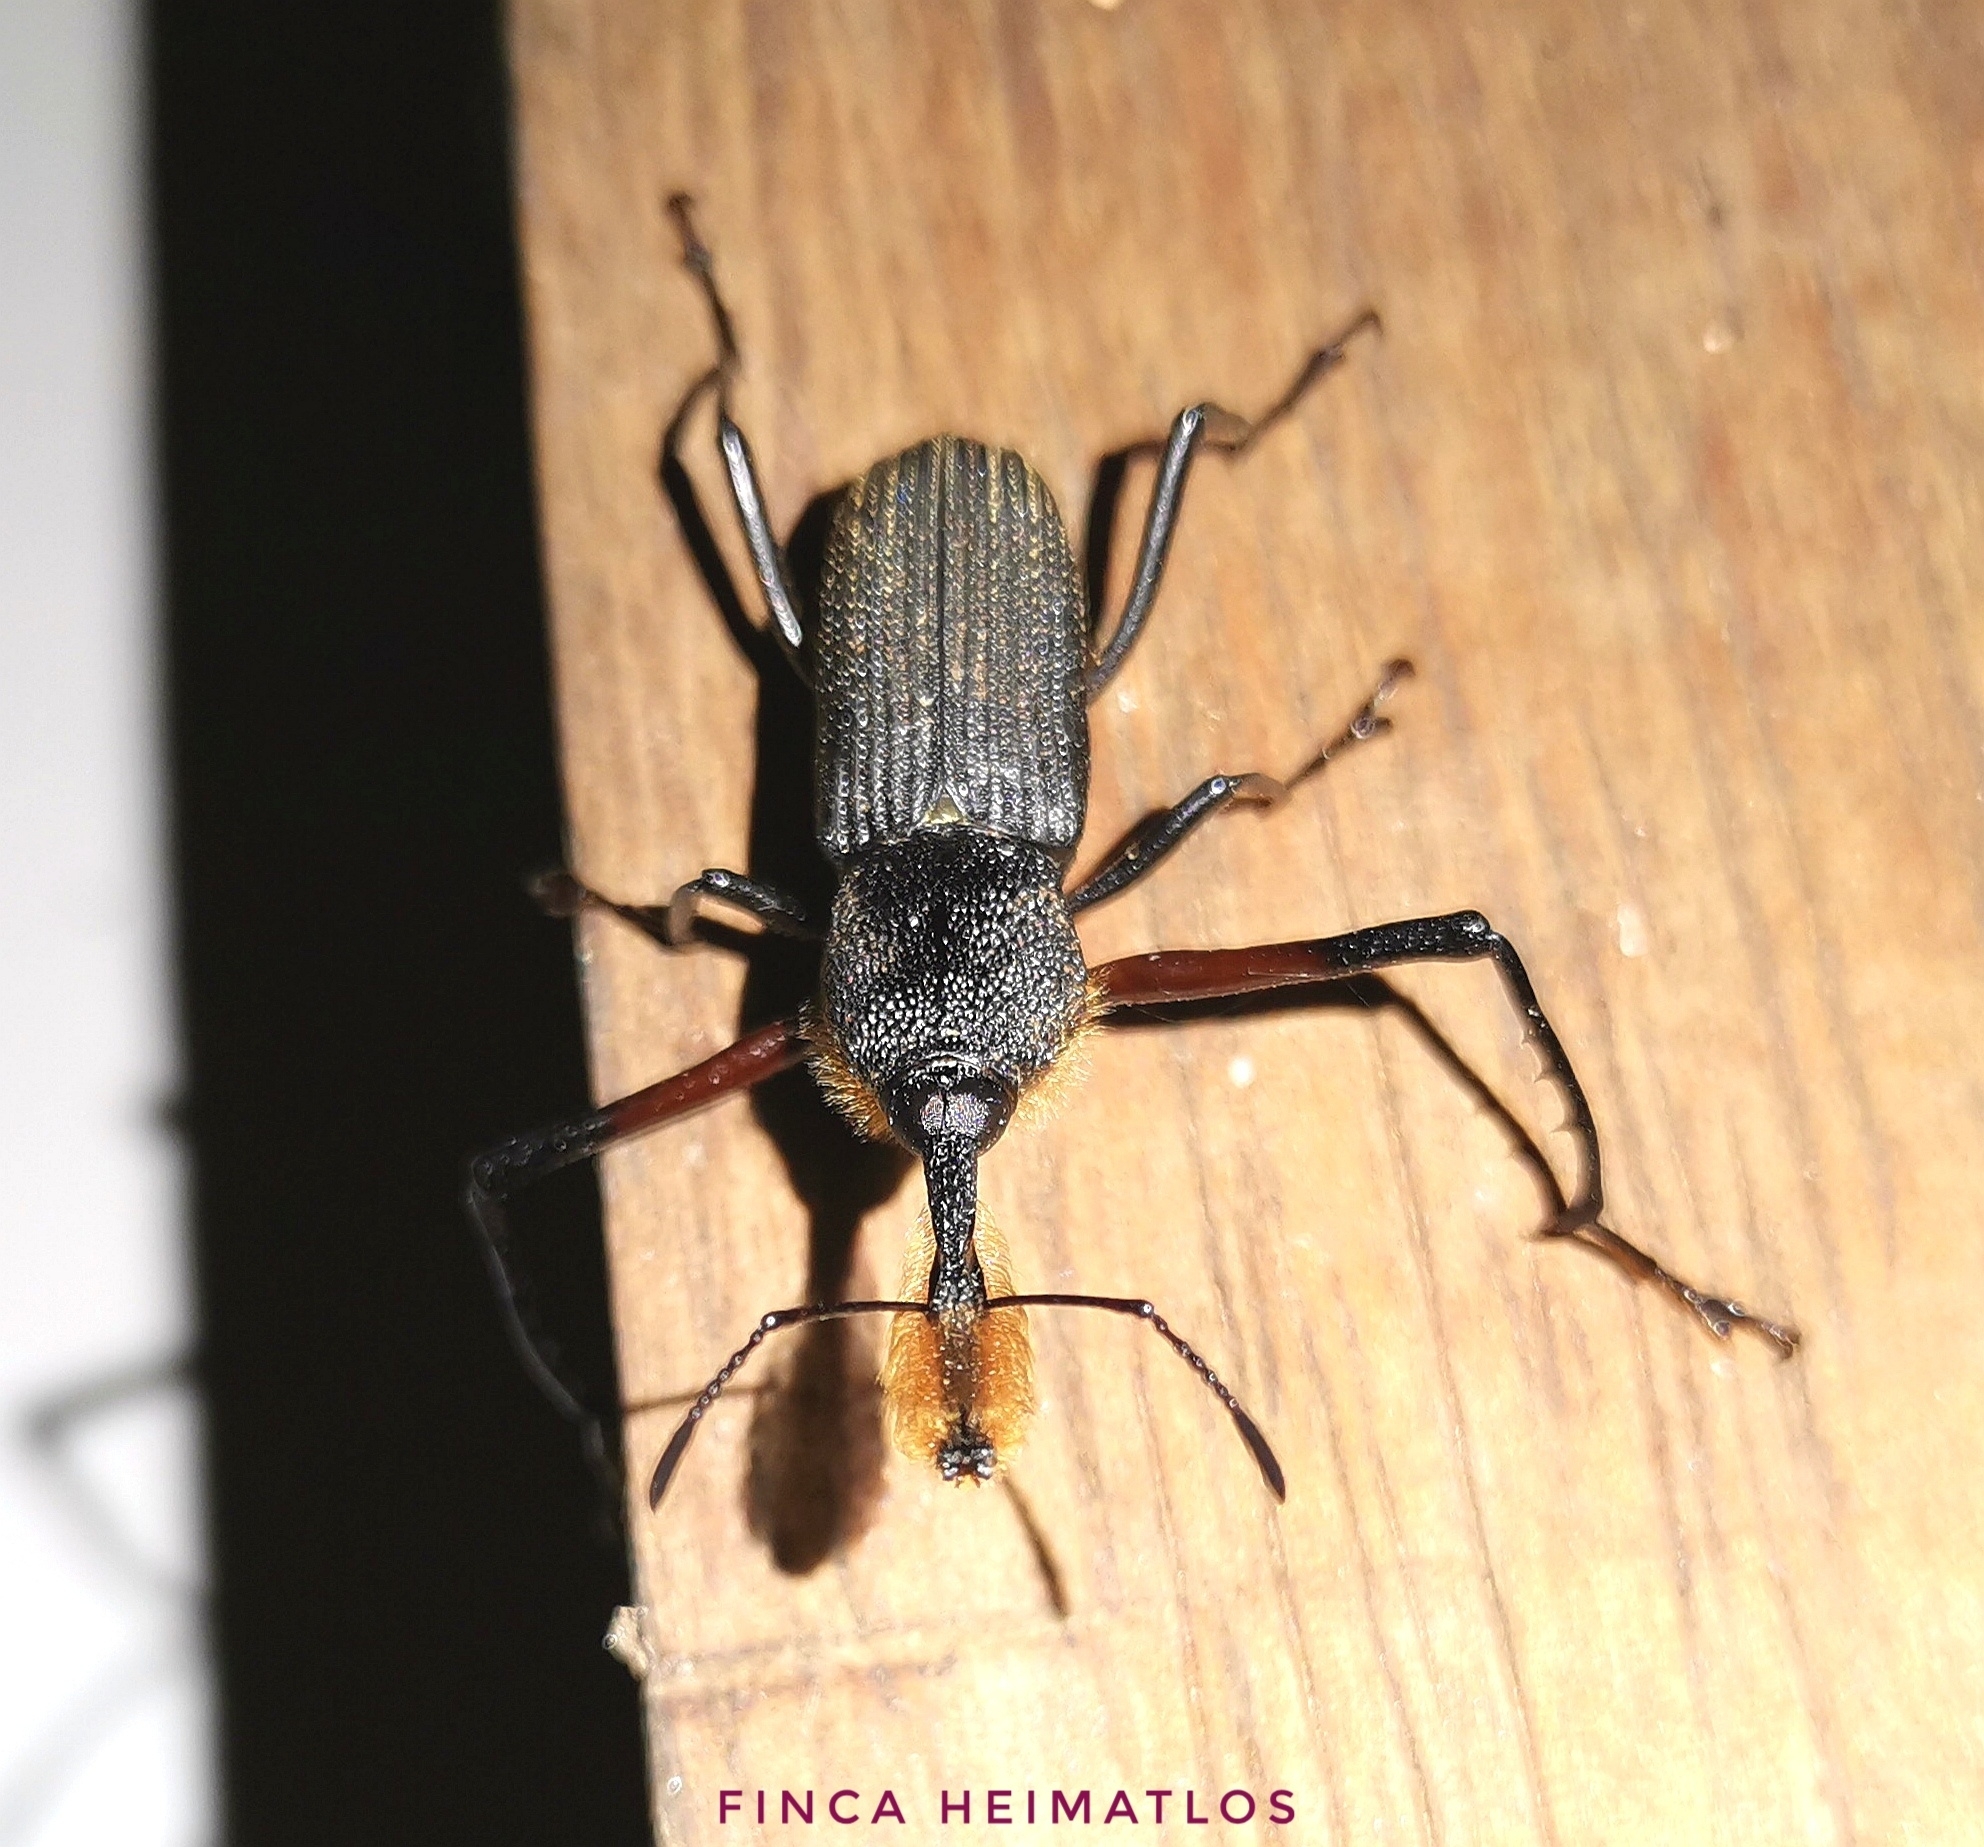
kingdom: Animalia
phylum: Arthropoda
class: Insecta
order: Coleoptera
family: Dryophthoridae
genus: Rhinostomus
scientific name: Rhinostomus barbirostris
